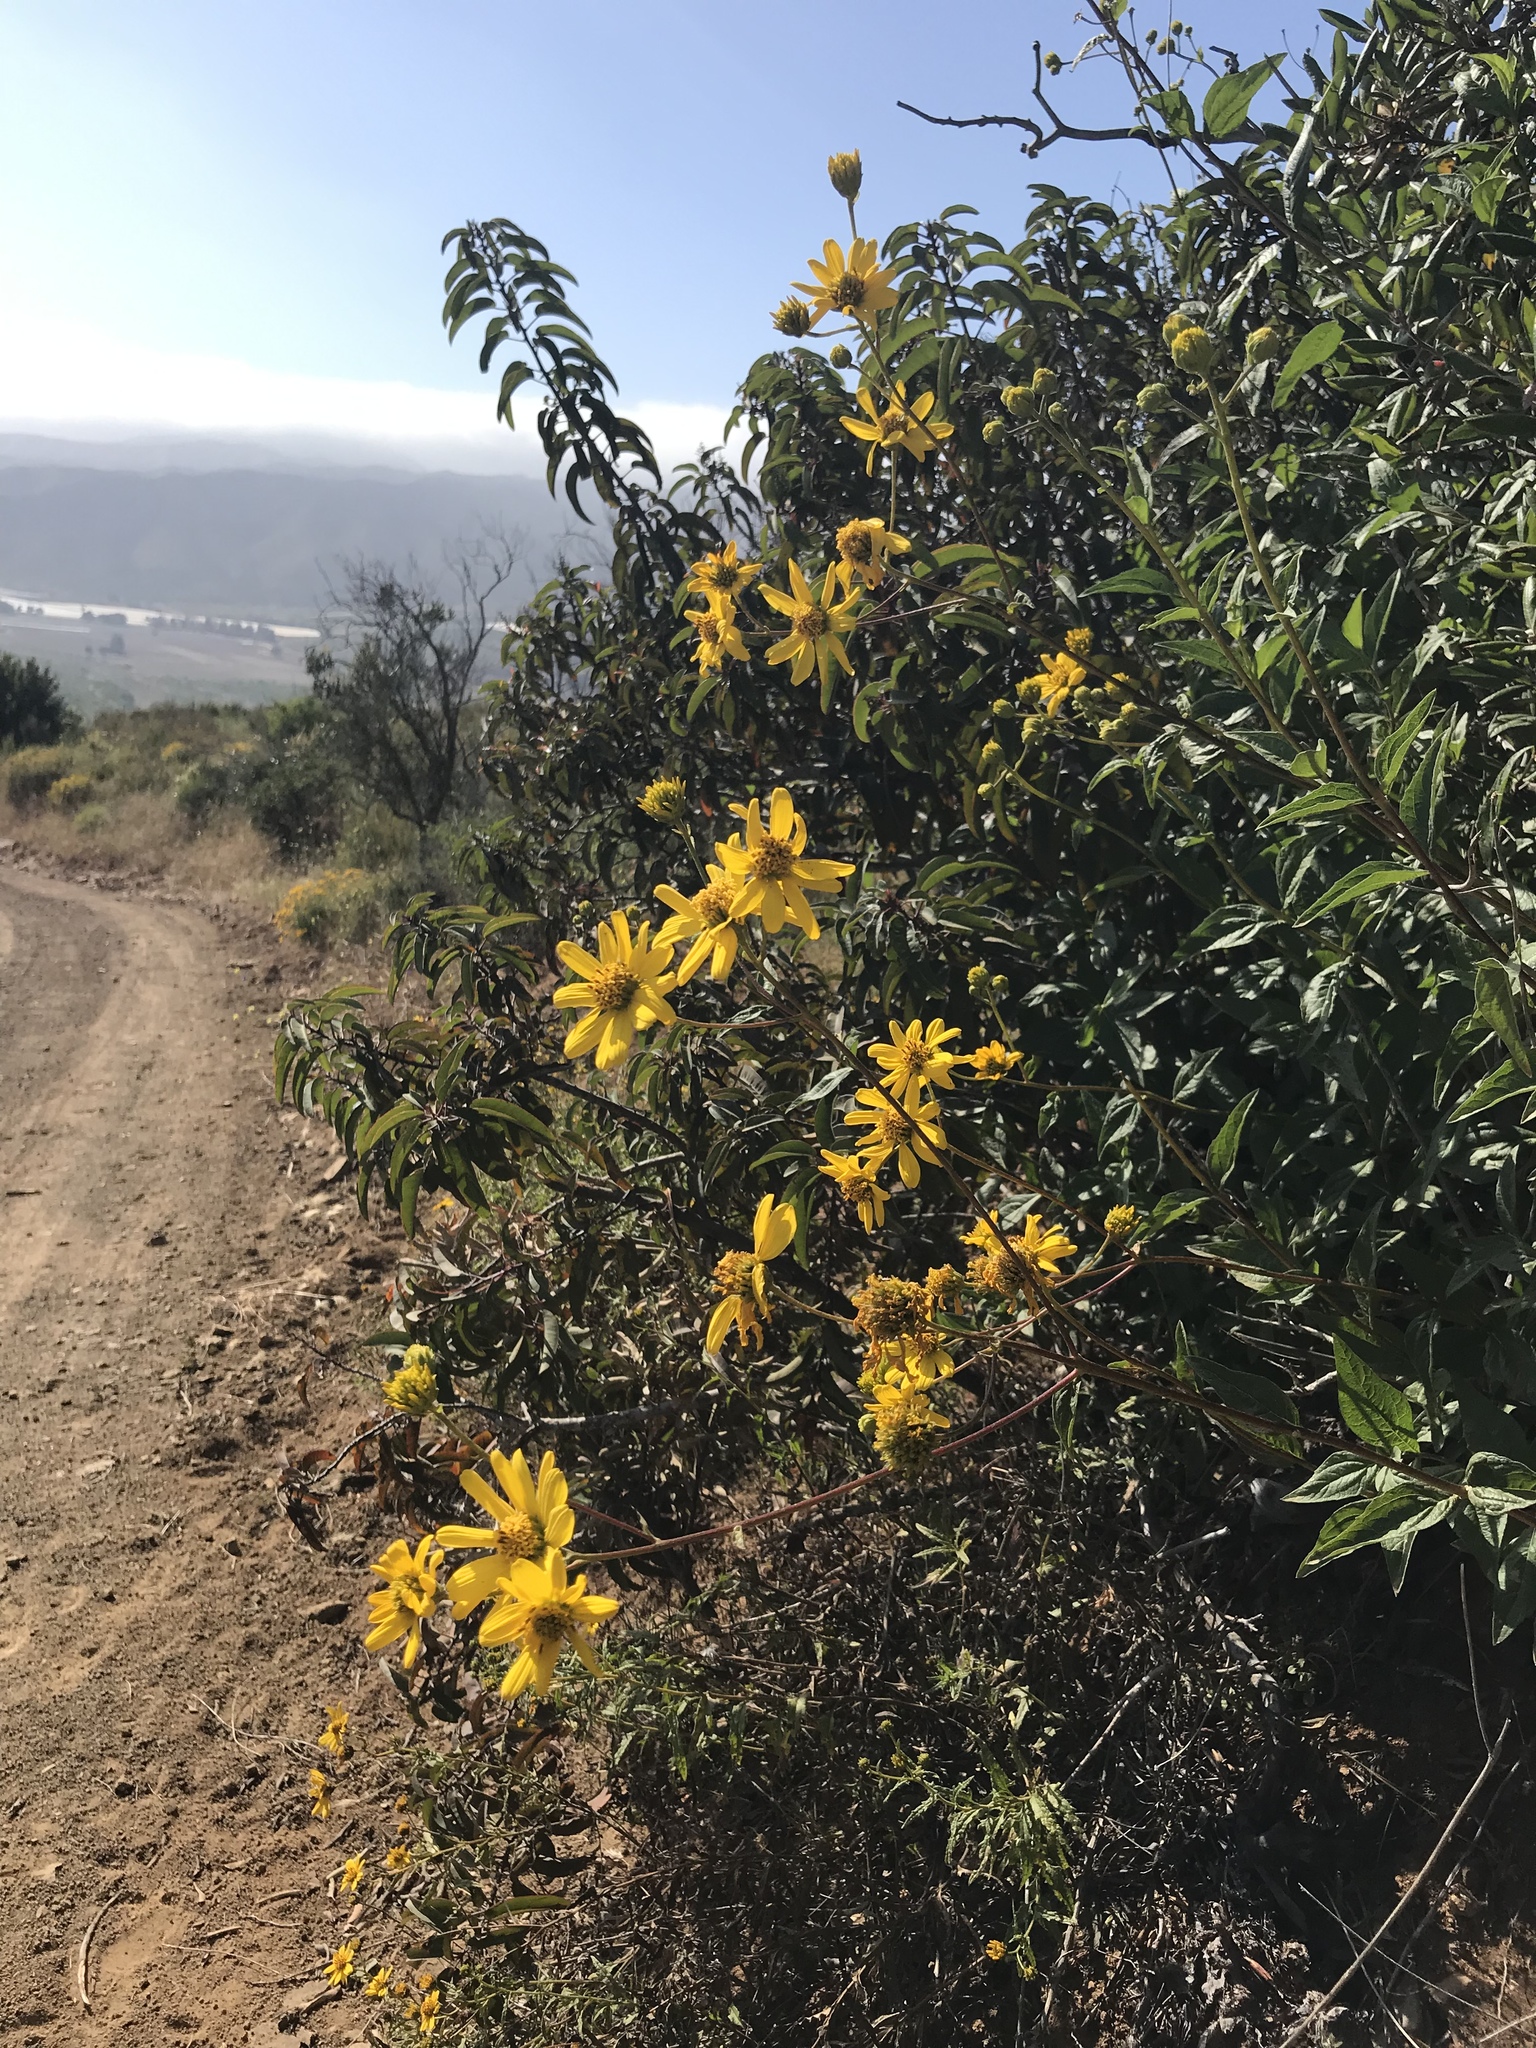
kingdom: Plantae
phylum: Tracheophyta
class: Magnoliopsida
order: Asterales
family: Asteraceae
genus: Verbesina
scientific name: Verbesina dissita
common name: Big-leaf crownbeard
